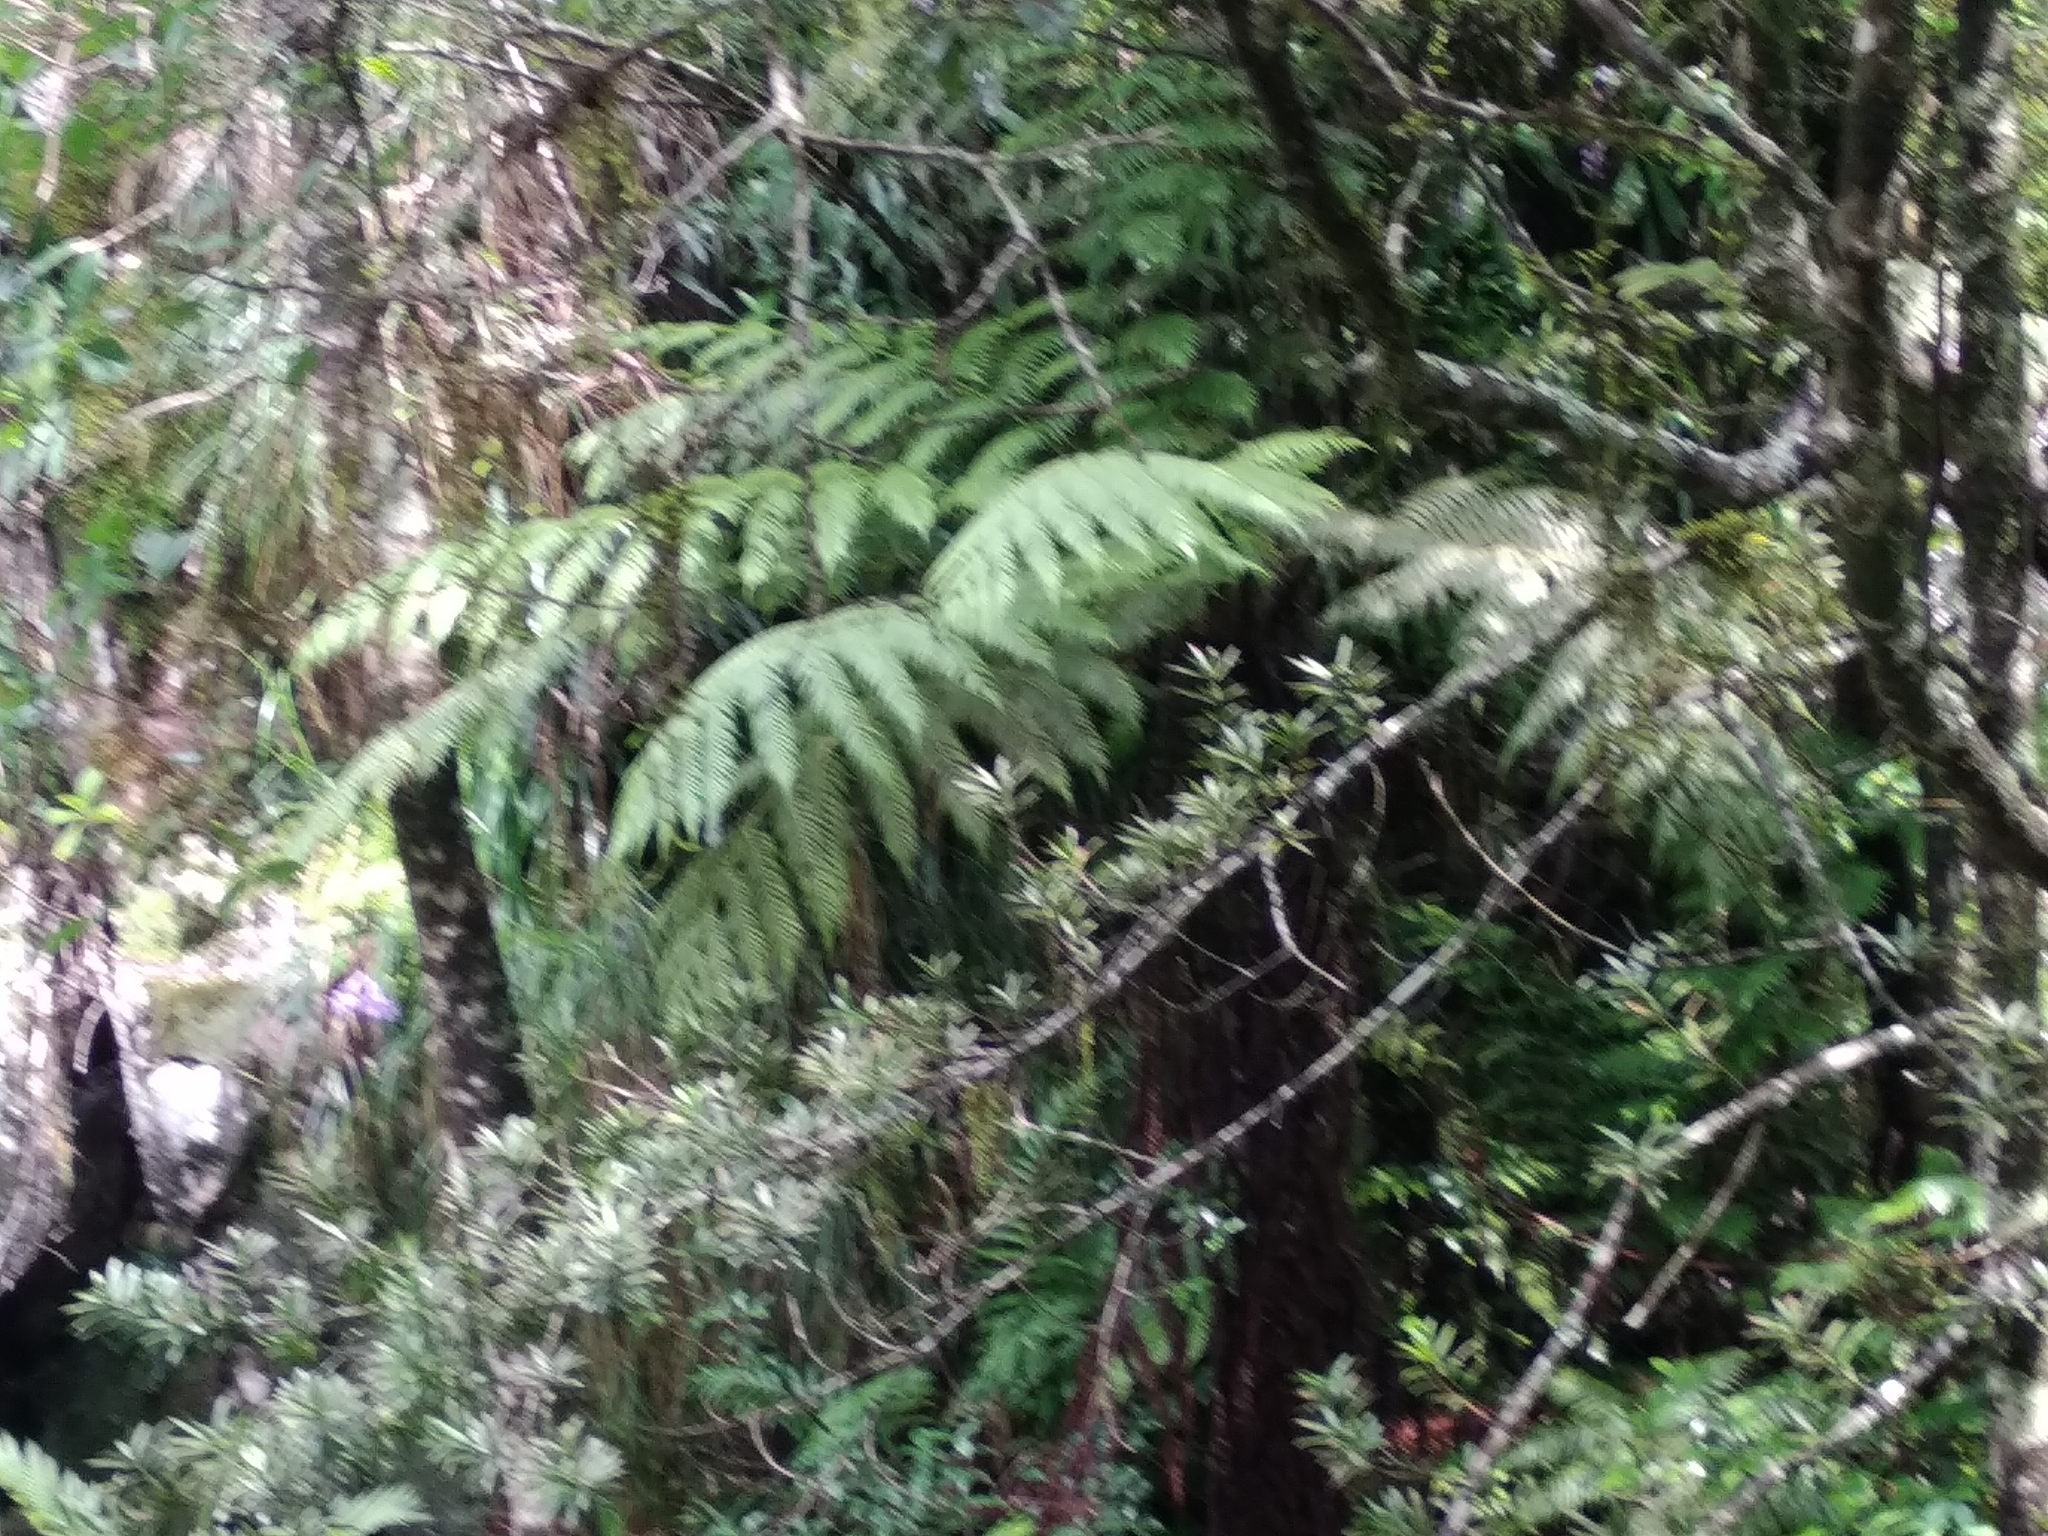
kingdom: Plantae
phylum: Tracheophyta
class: Polypodiopsida
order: Cyatheales
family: Cyatheaceae
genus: Gymnosphaera
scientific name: Gymnosphaera capensis
